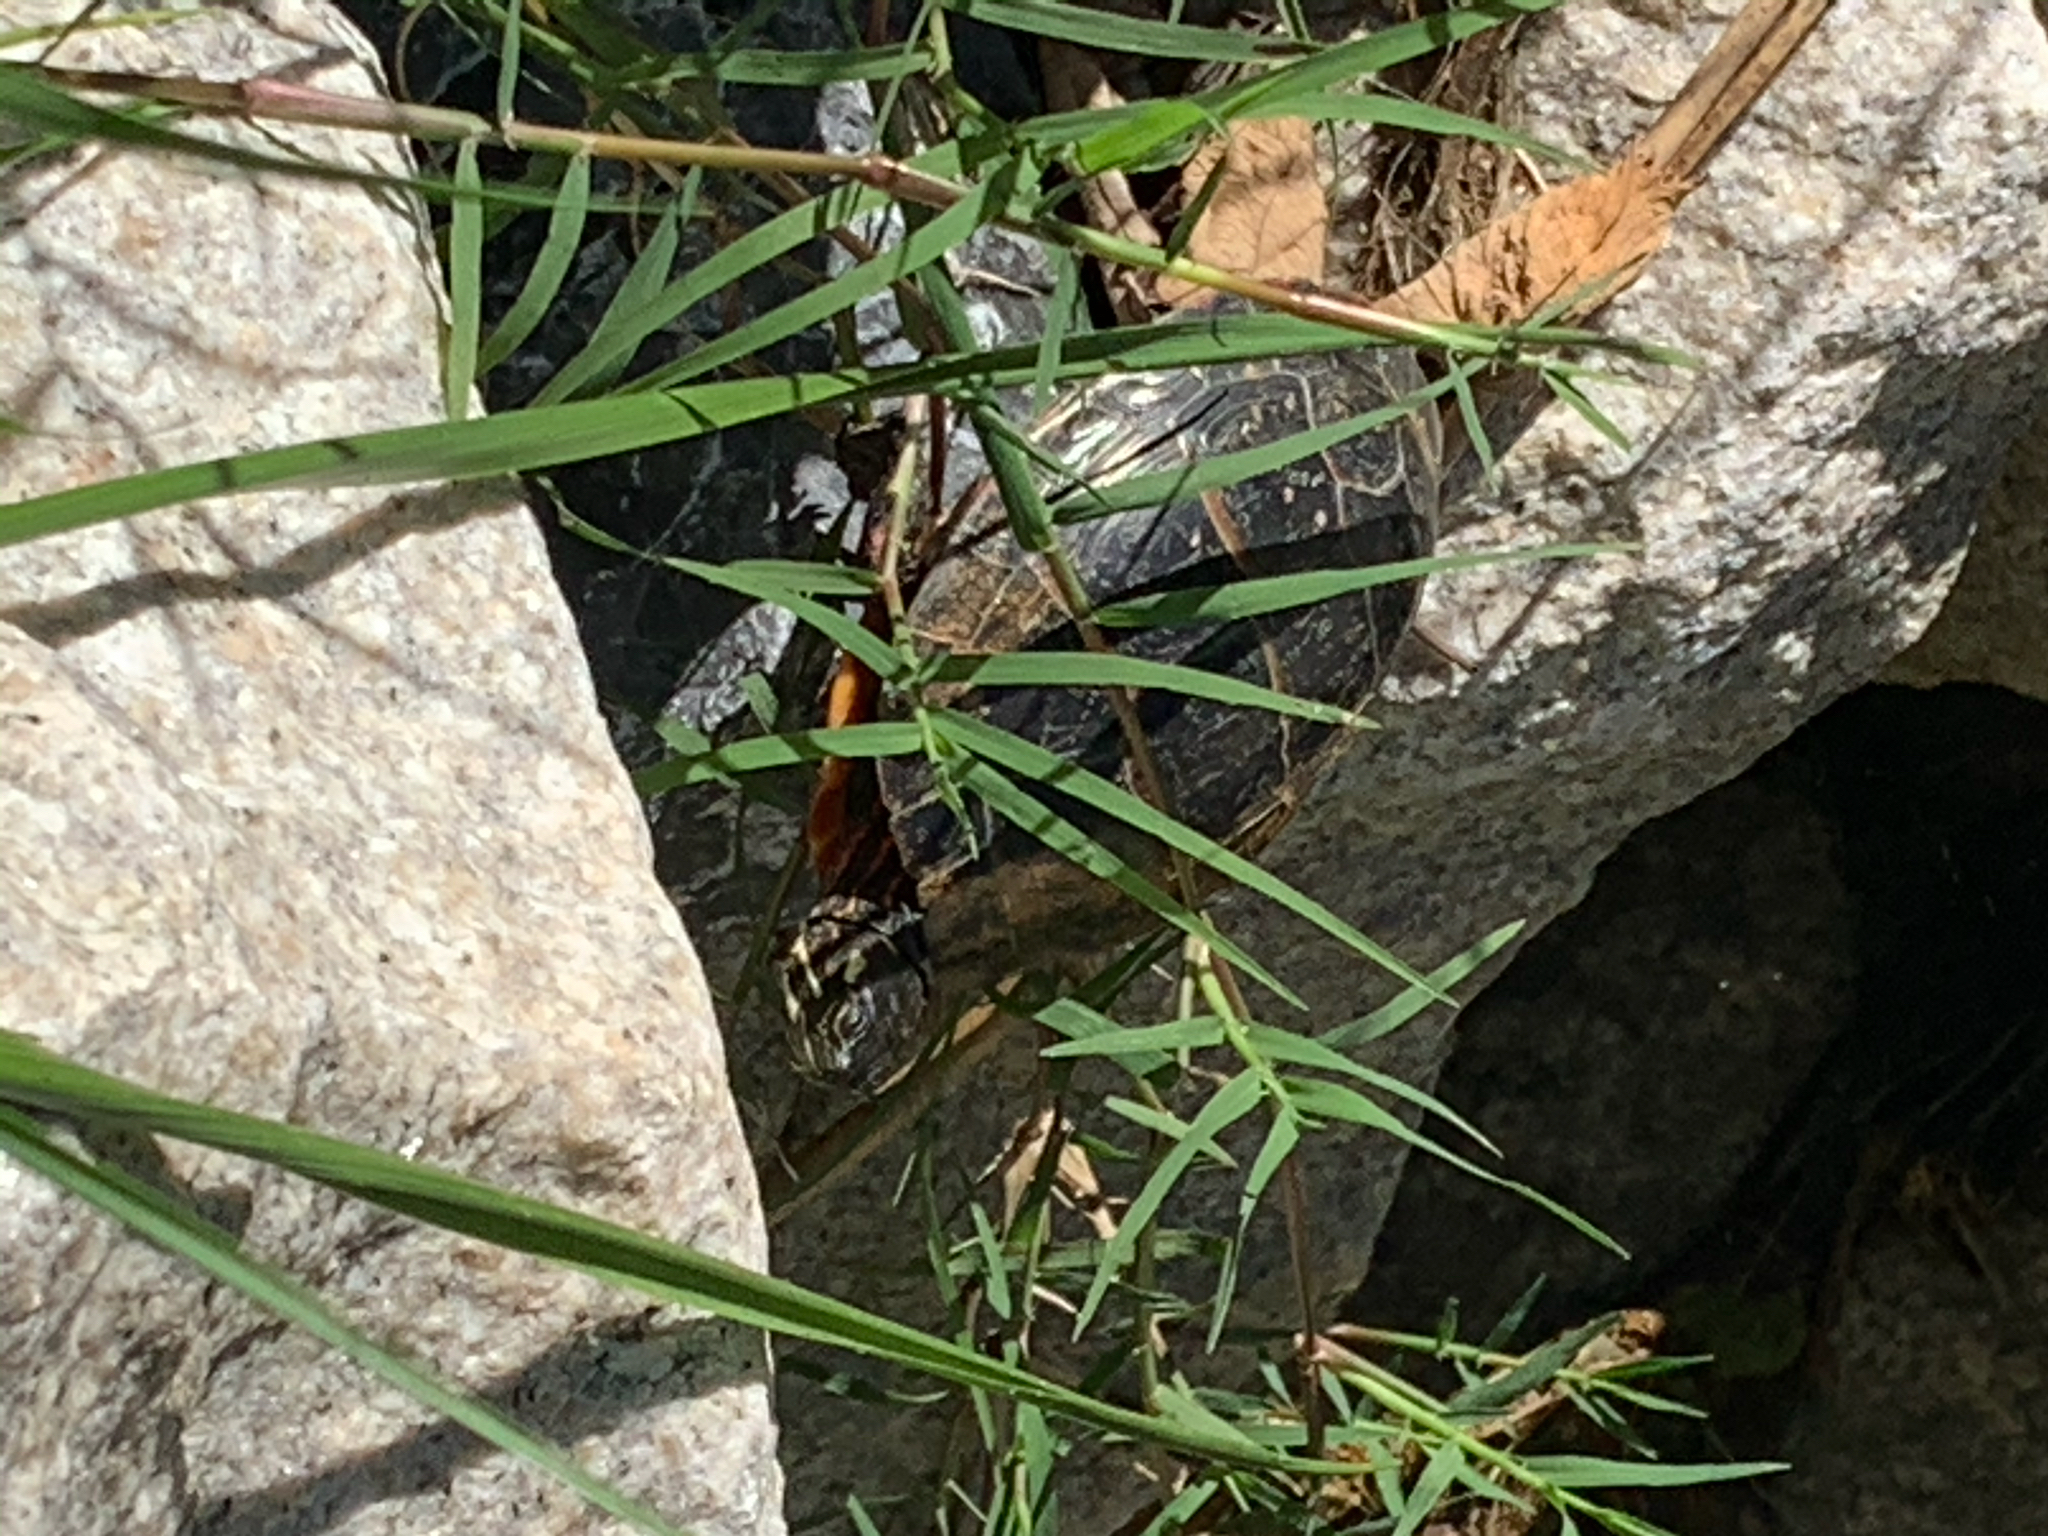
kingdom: Animalia
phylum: Chordata
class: Testudines
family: Emydidae
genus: Chrysemys
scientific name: Chrysemys picta
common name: Painted turtle
